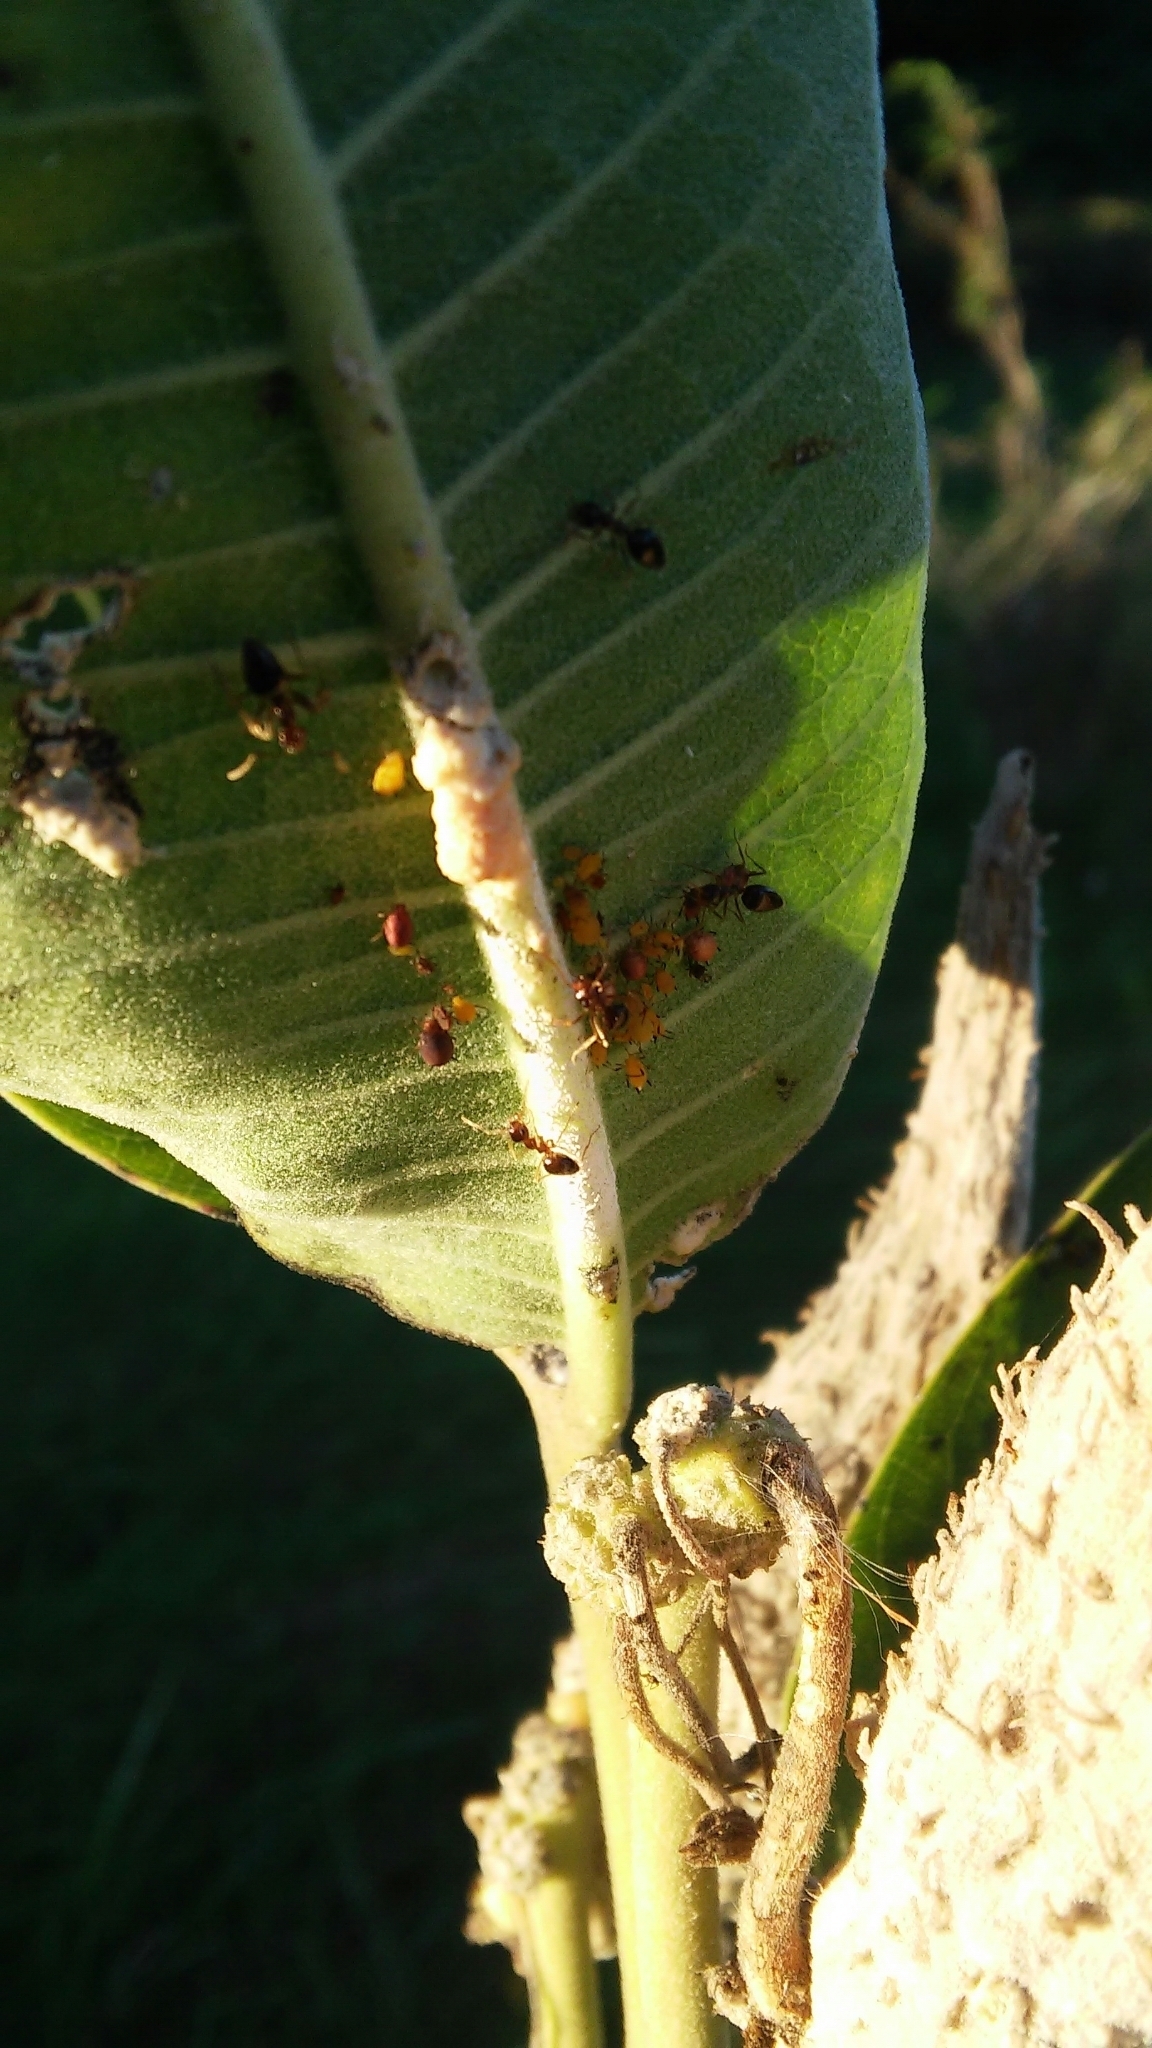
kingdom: Animalia
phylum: Arthropoda
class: Insecta
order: Hemiptera
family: Aphididae
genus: Aphis
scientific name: Aphis nerii
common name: Oleander aphid
